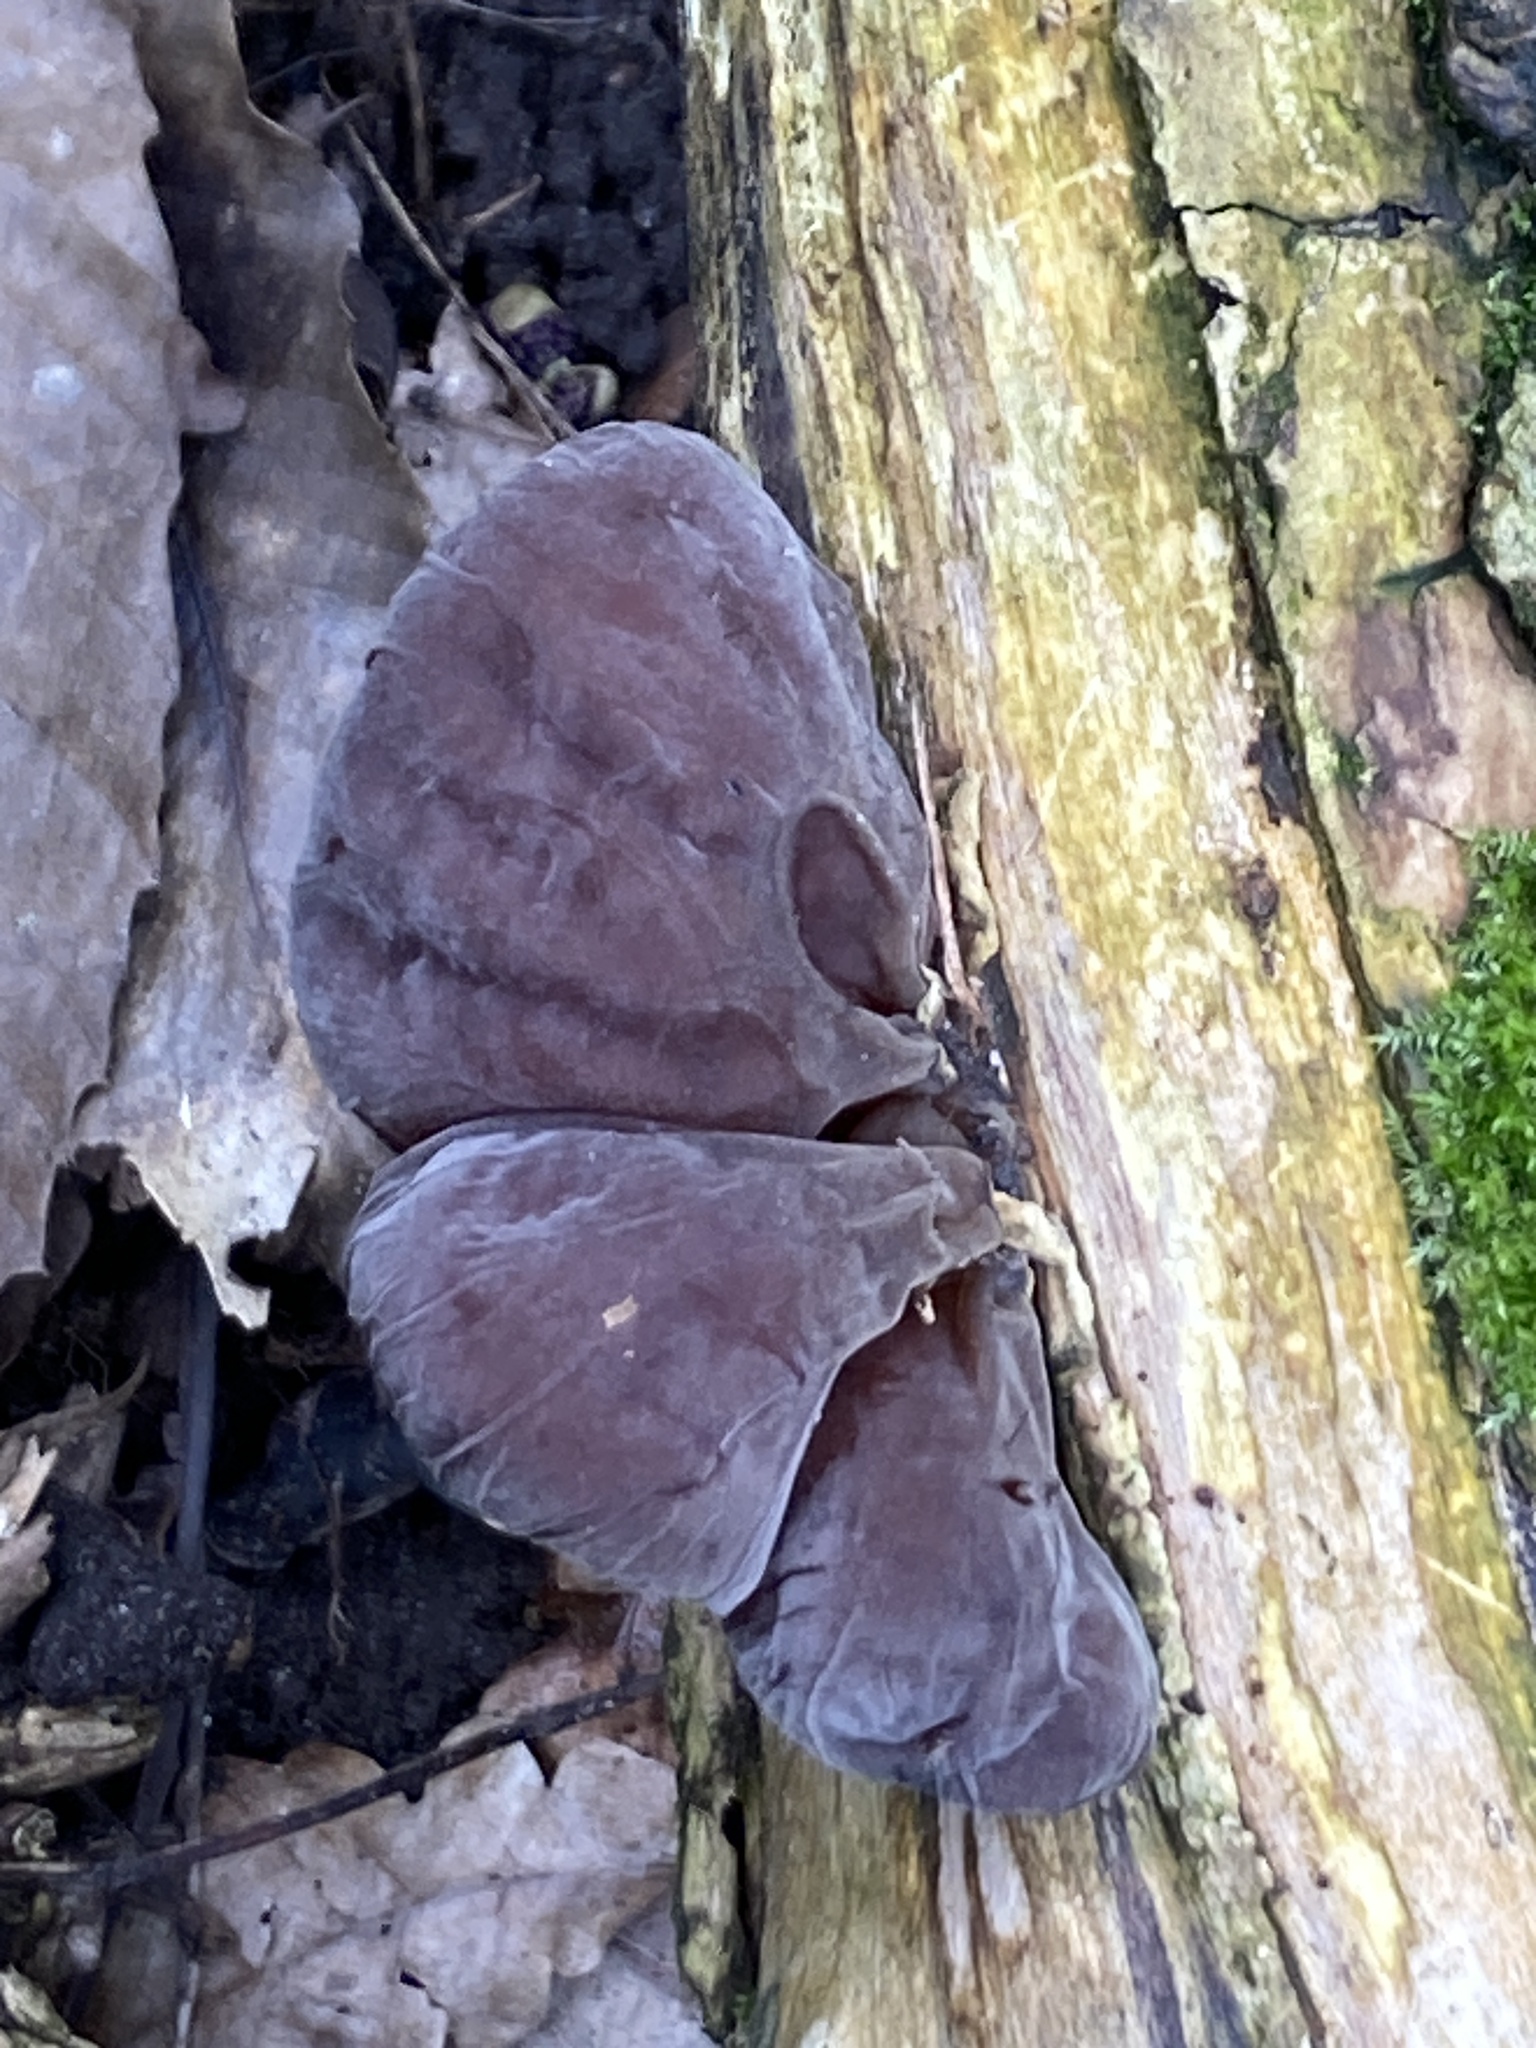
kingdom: Fungi
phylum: Basidiomycota
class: Agaricomycetes
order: Auriculariales
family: Auriculariaceae
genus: Auricularia
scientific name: Auricularia auricula-judae
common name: Jelly ear
